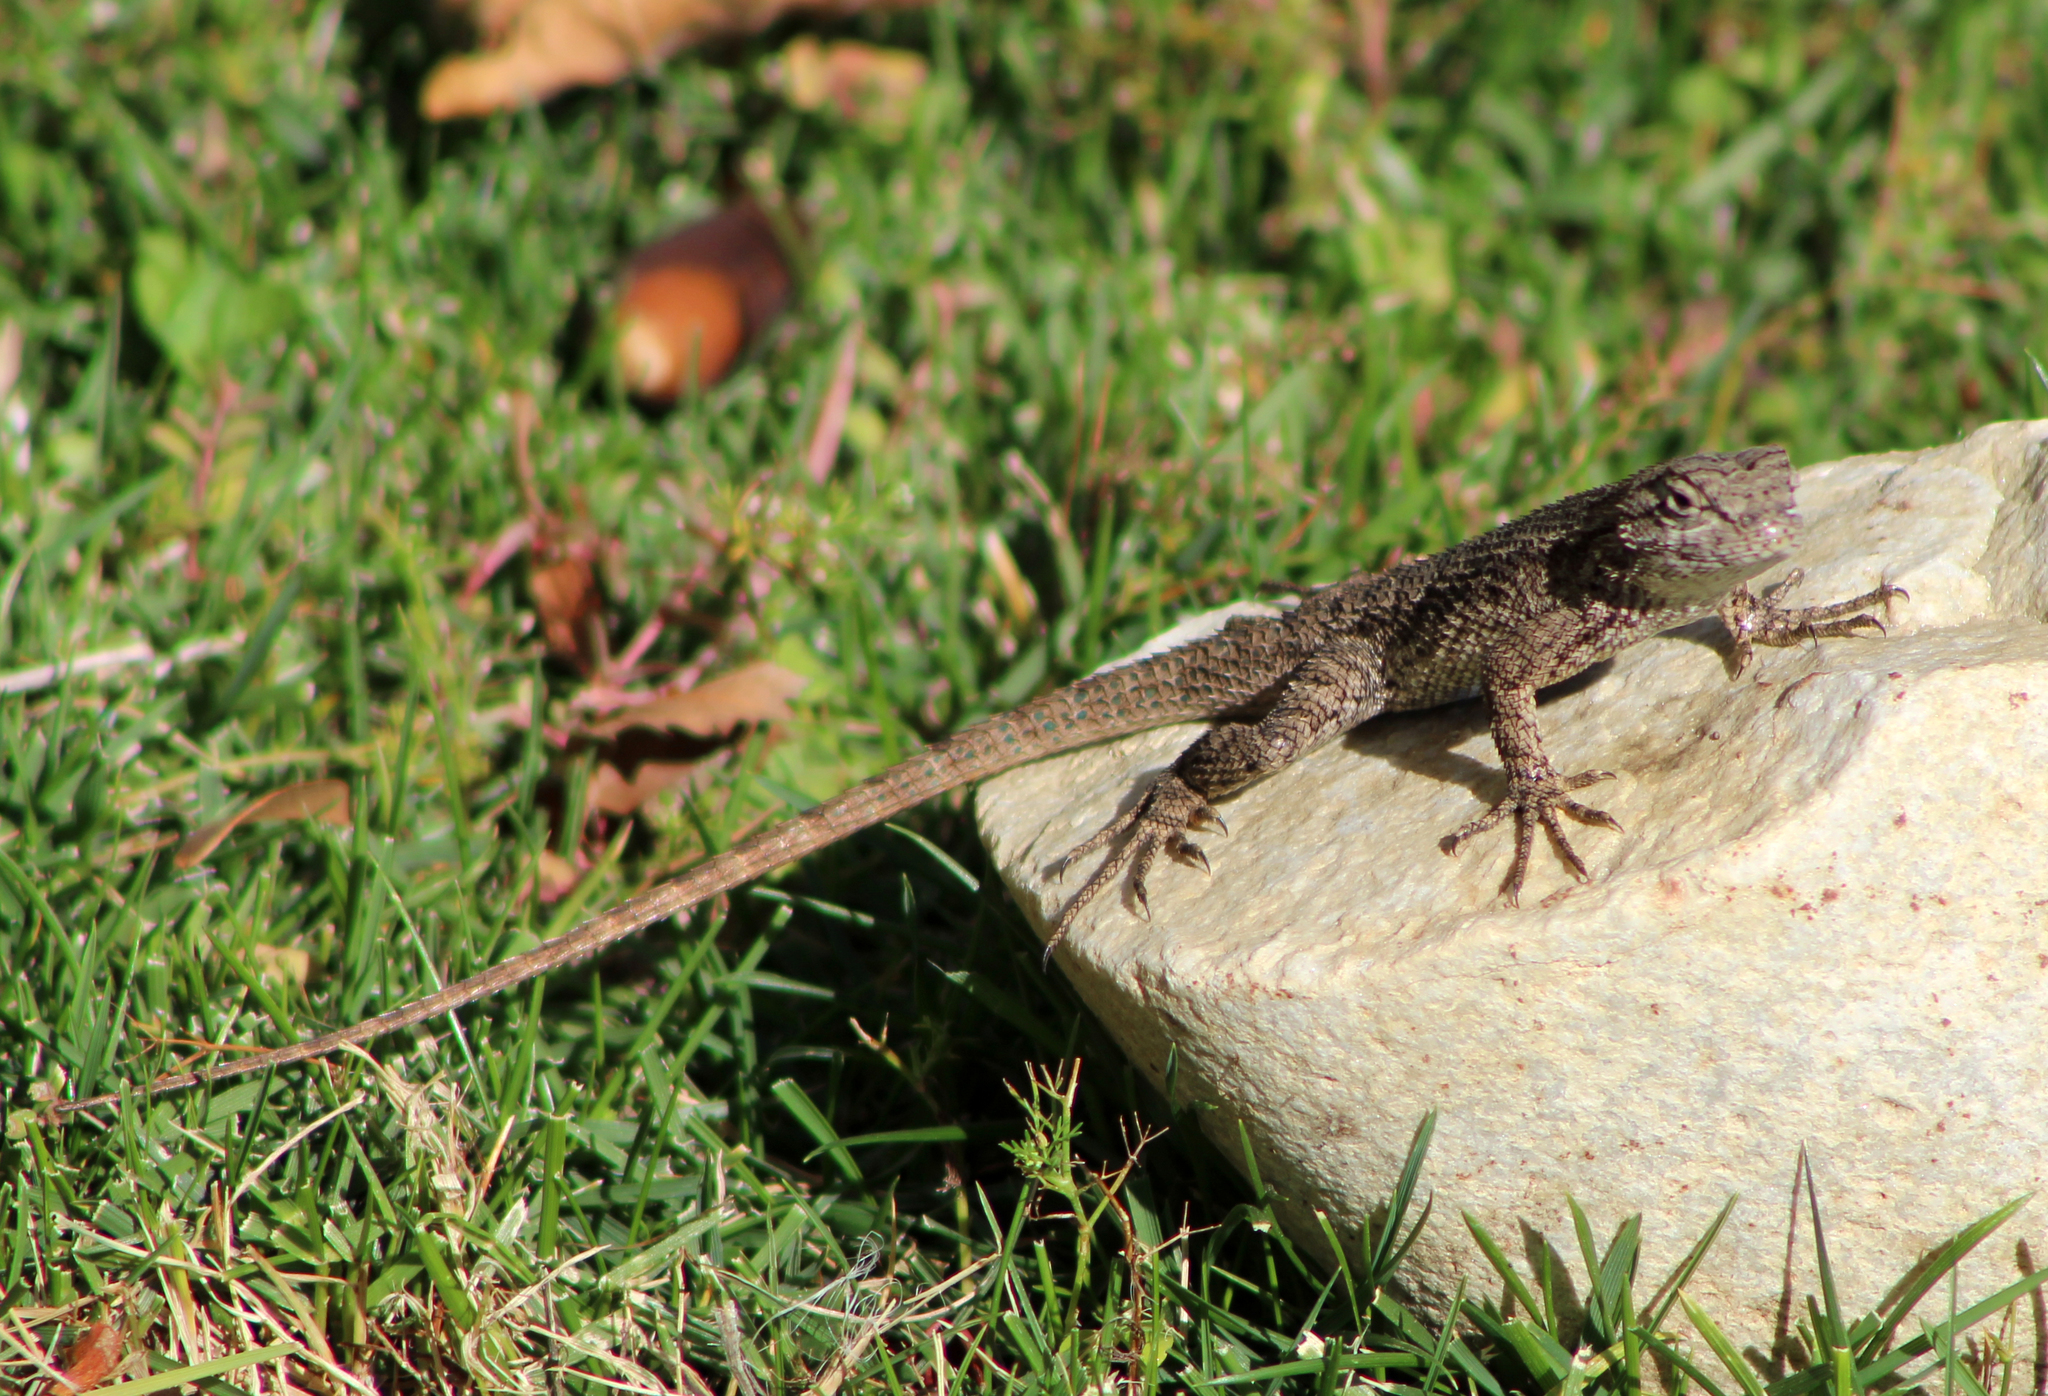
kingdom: Animalia
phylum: Chordata
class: Squamata
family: Phrynosomatidae
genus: Sceloporus
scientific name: Sceloporus occidentalis
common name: Western fence lizard
